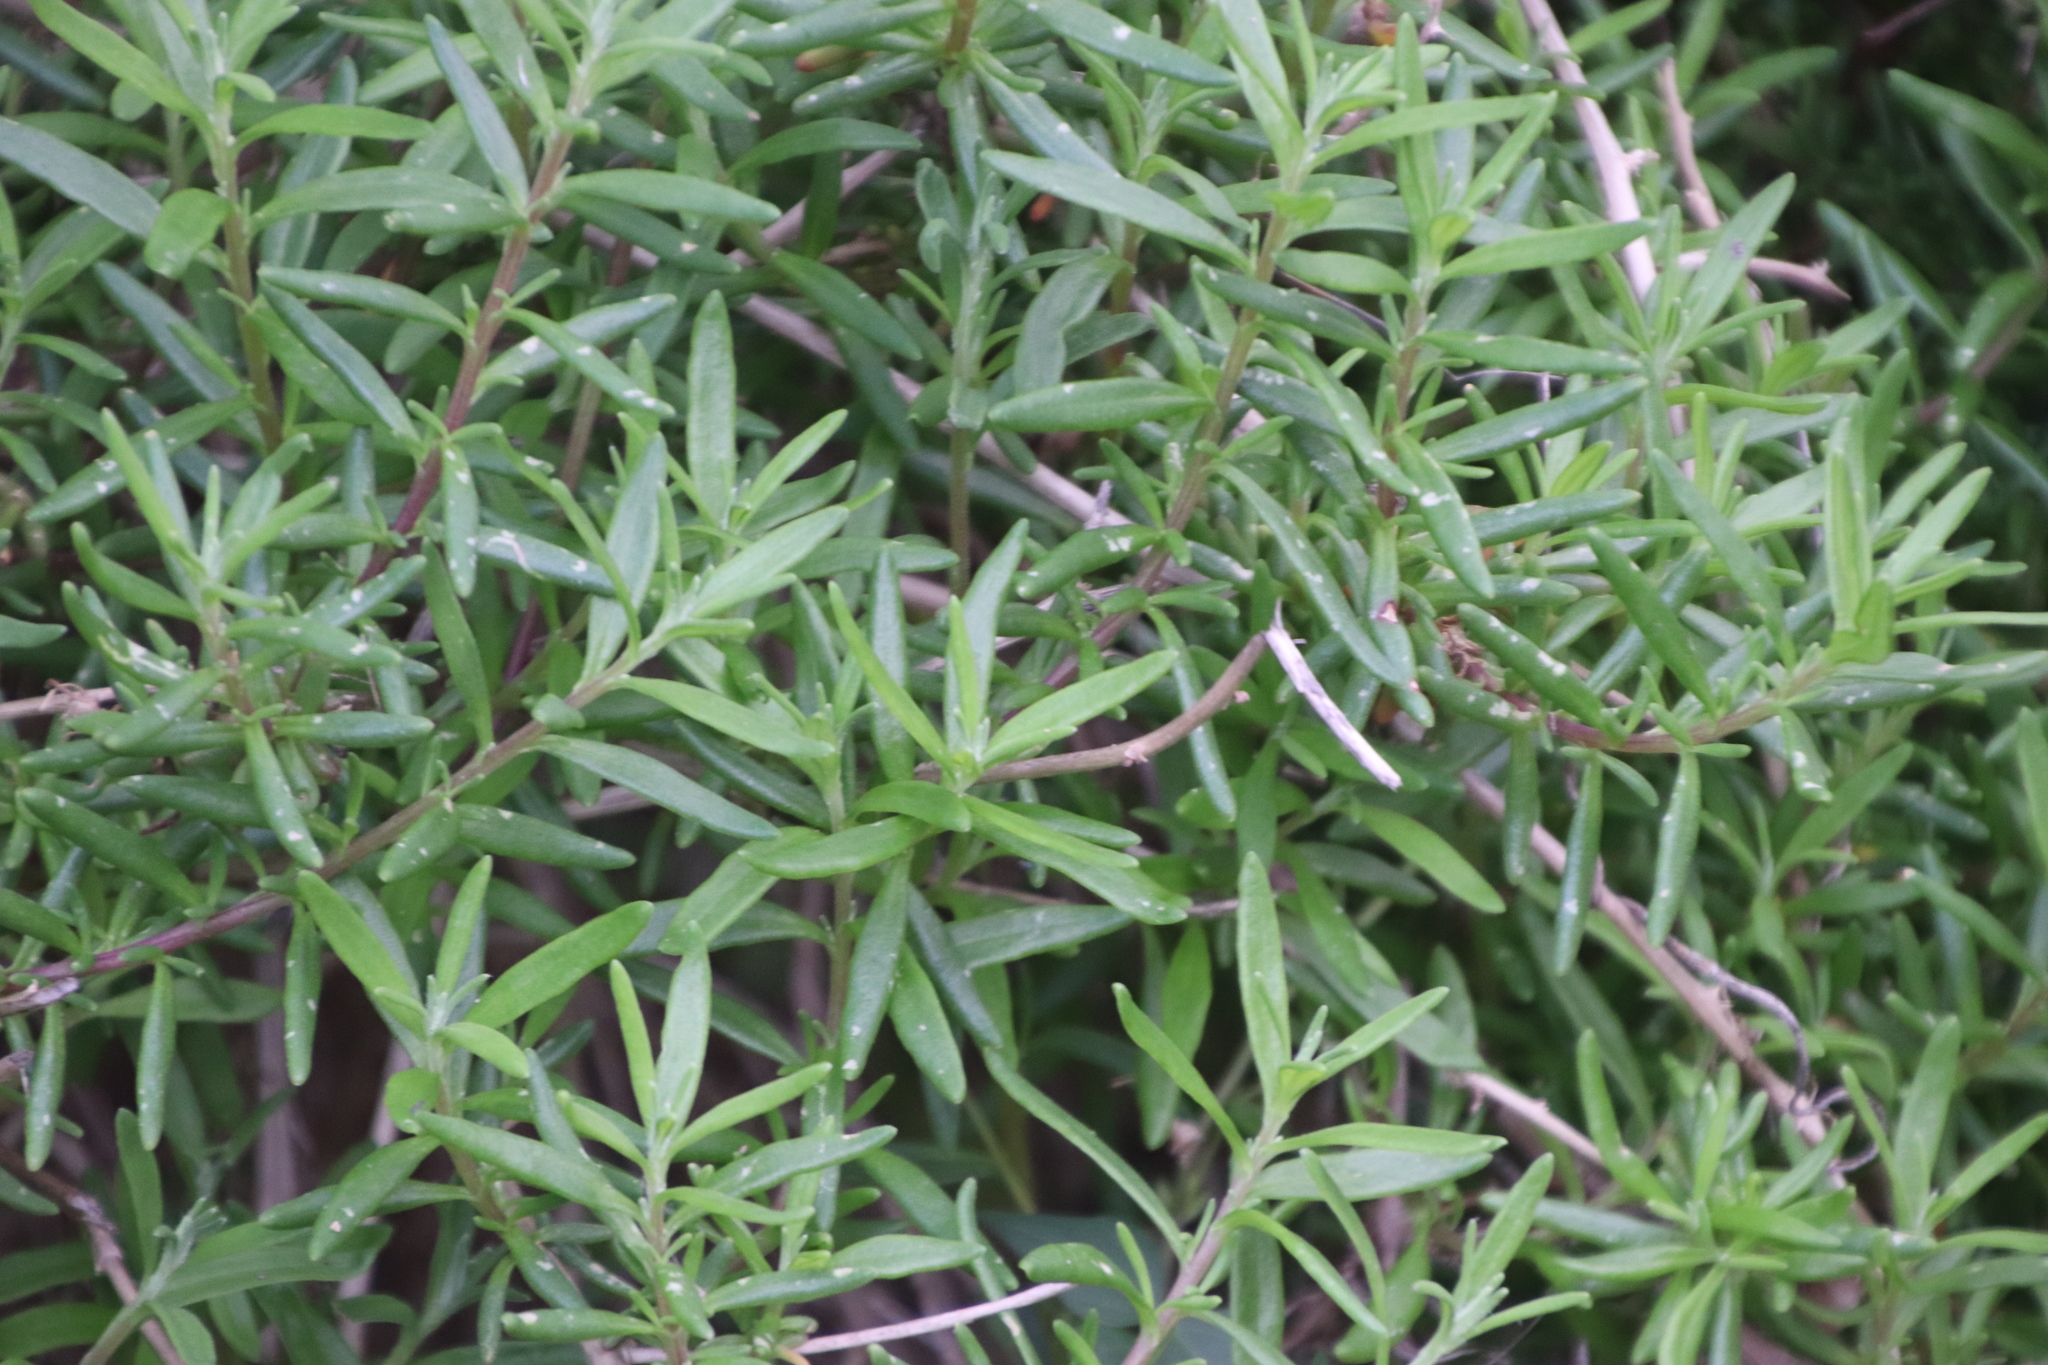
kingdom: Plantae
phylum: Tracheophyta
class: Magnoliopsida
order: Caryophyllales
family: Aizoaceae
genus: Tetragonia
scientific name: Tetragonia fruticosa
